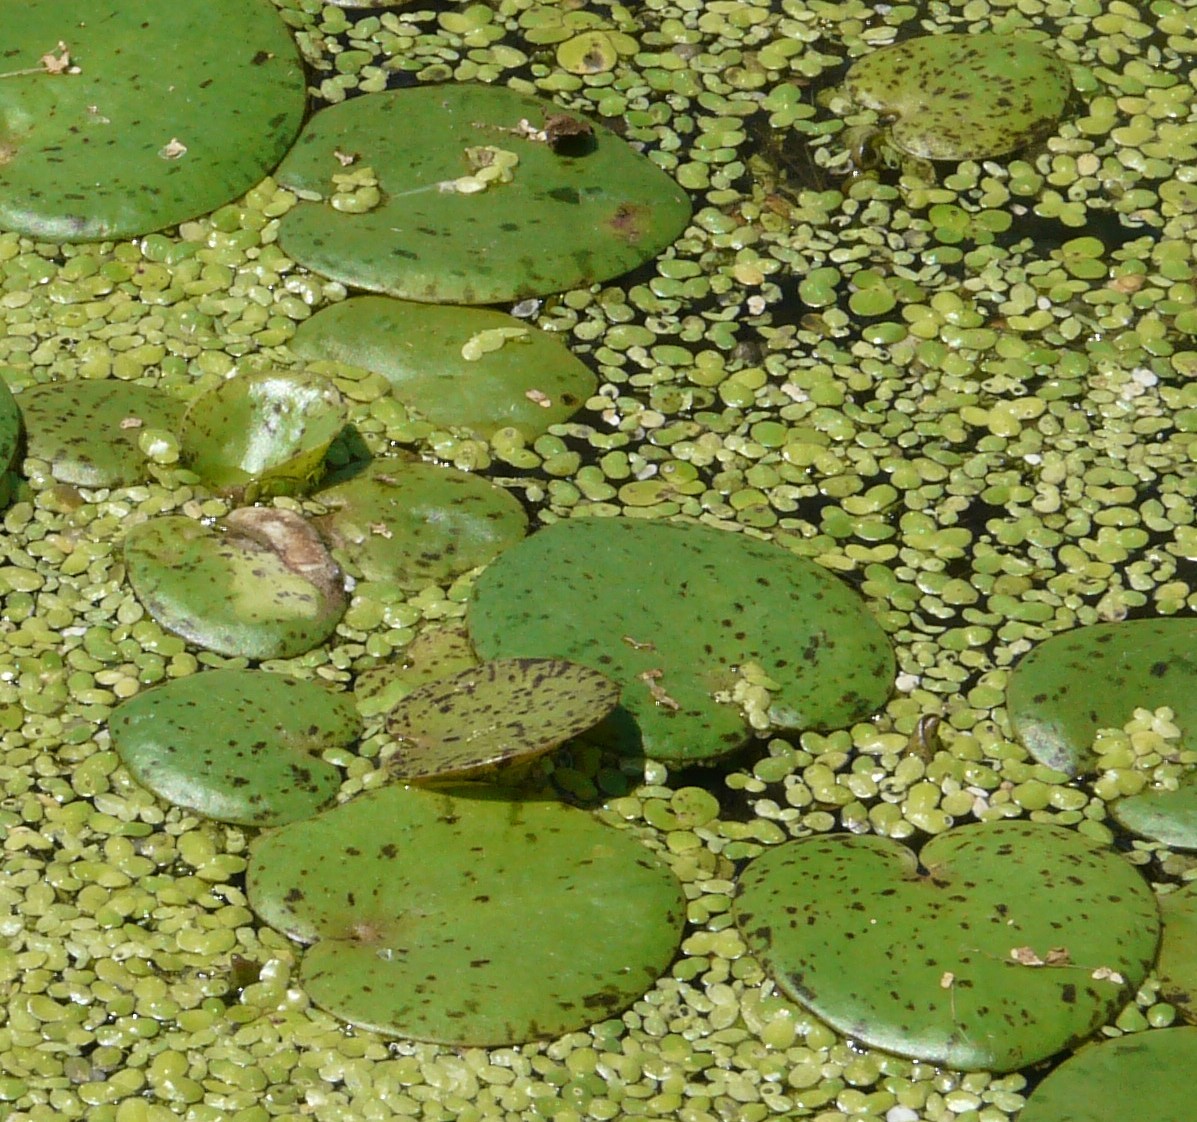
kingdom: Plantae
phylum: Tracheophyta
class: Liliopsida
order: Alismatales
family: Hydrocharitaceae
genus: Hydrocharis
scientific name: Hydrocharis spongia
